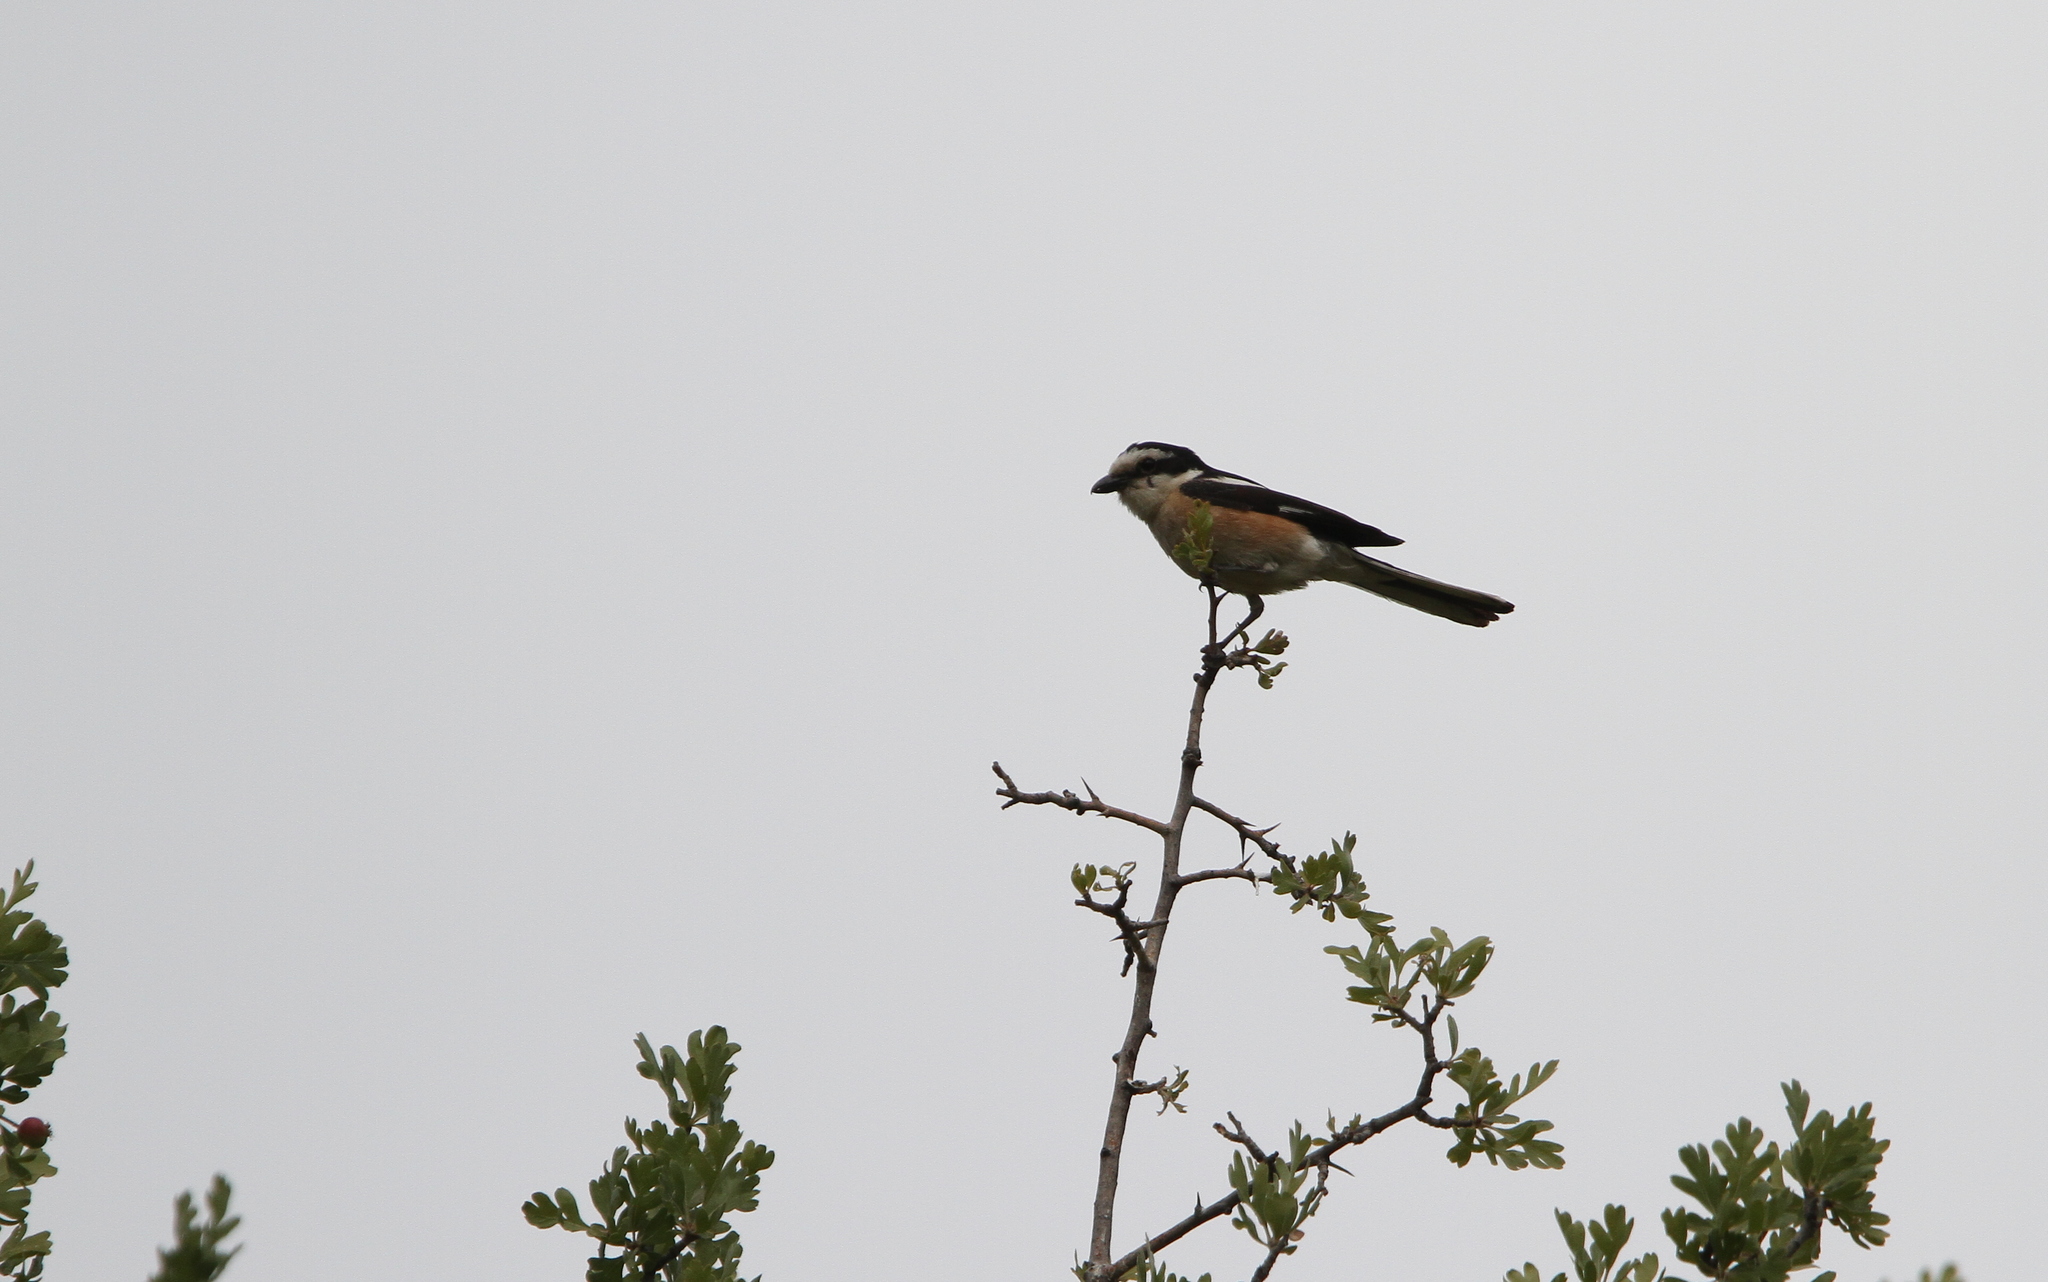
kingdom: Animalia
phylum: Chordata
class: Aves
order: Passeriformes
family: Laniidae
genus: Lanius
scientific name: Lanius nubicus
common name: Masked shrike
